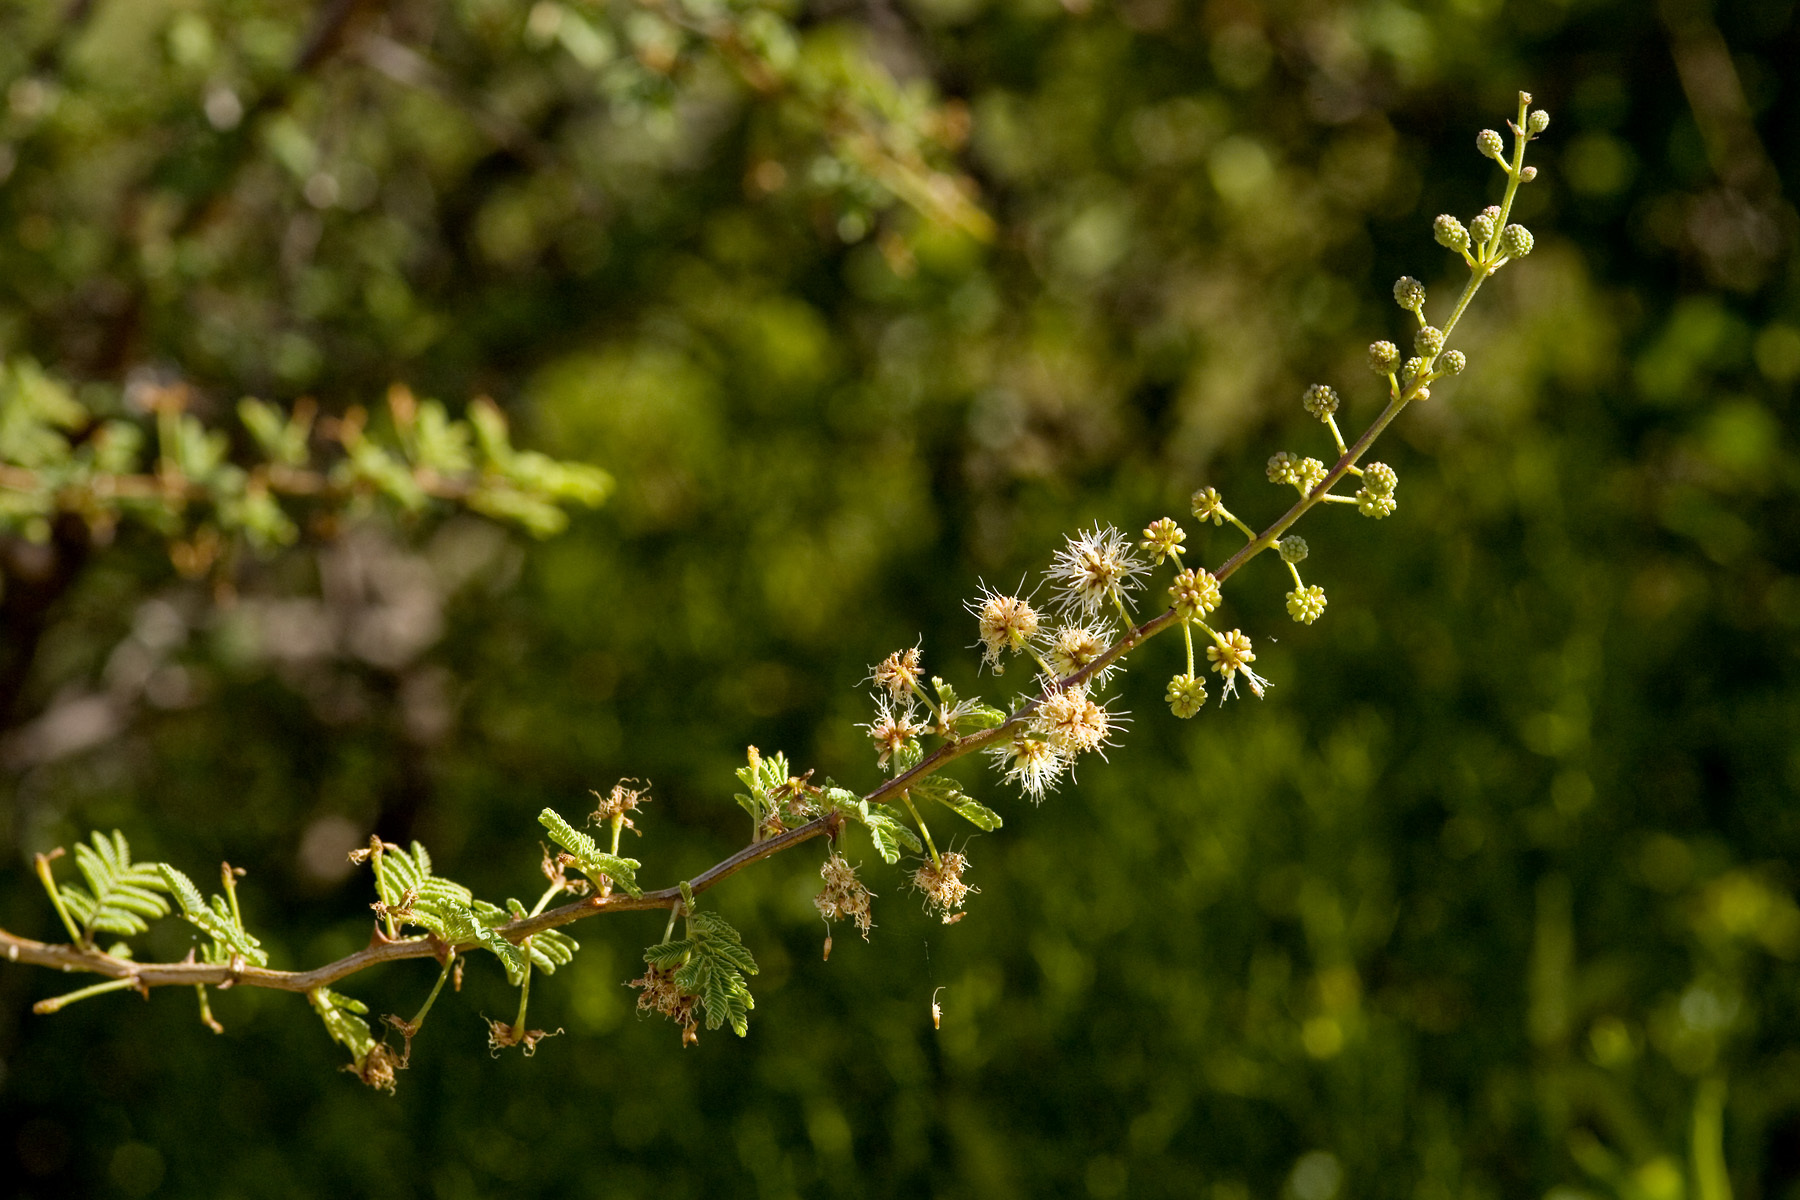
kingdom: Plantae
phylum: Tracheophyta
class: Magnoliopsida
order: Fabales
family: Fabaceae
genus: Mimosa
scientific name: Mimosa biuncifera
